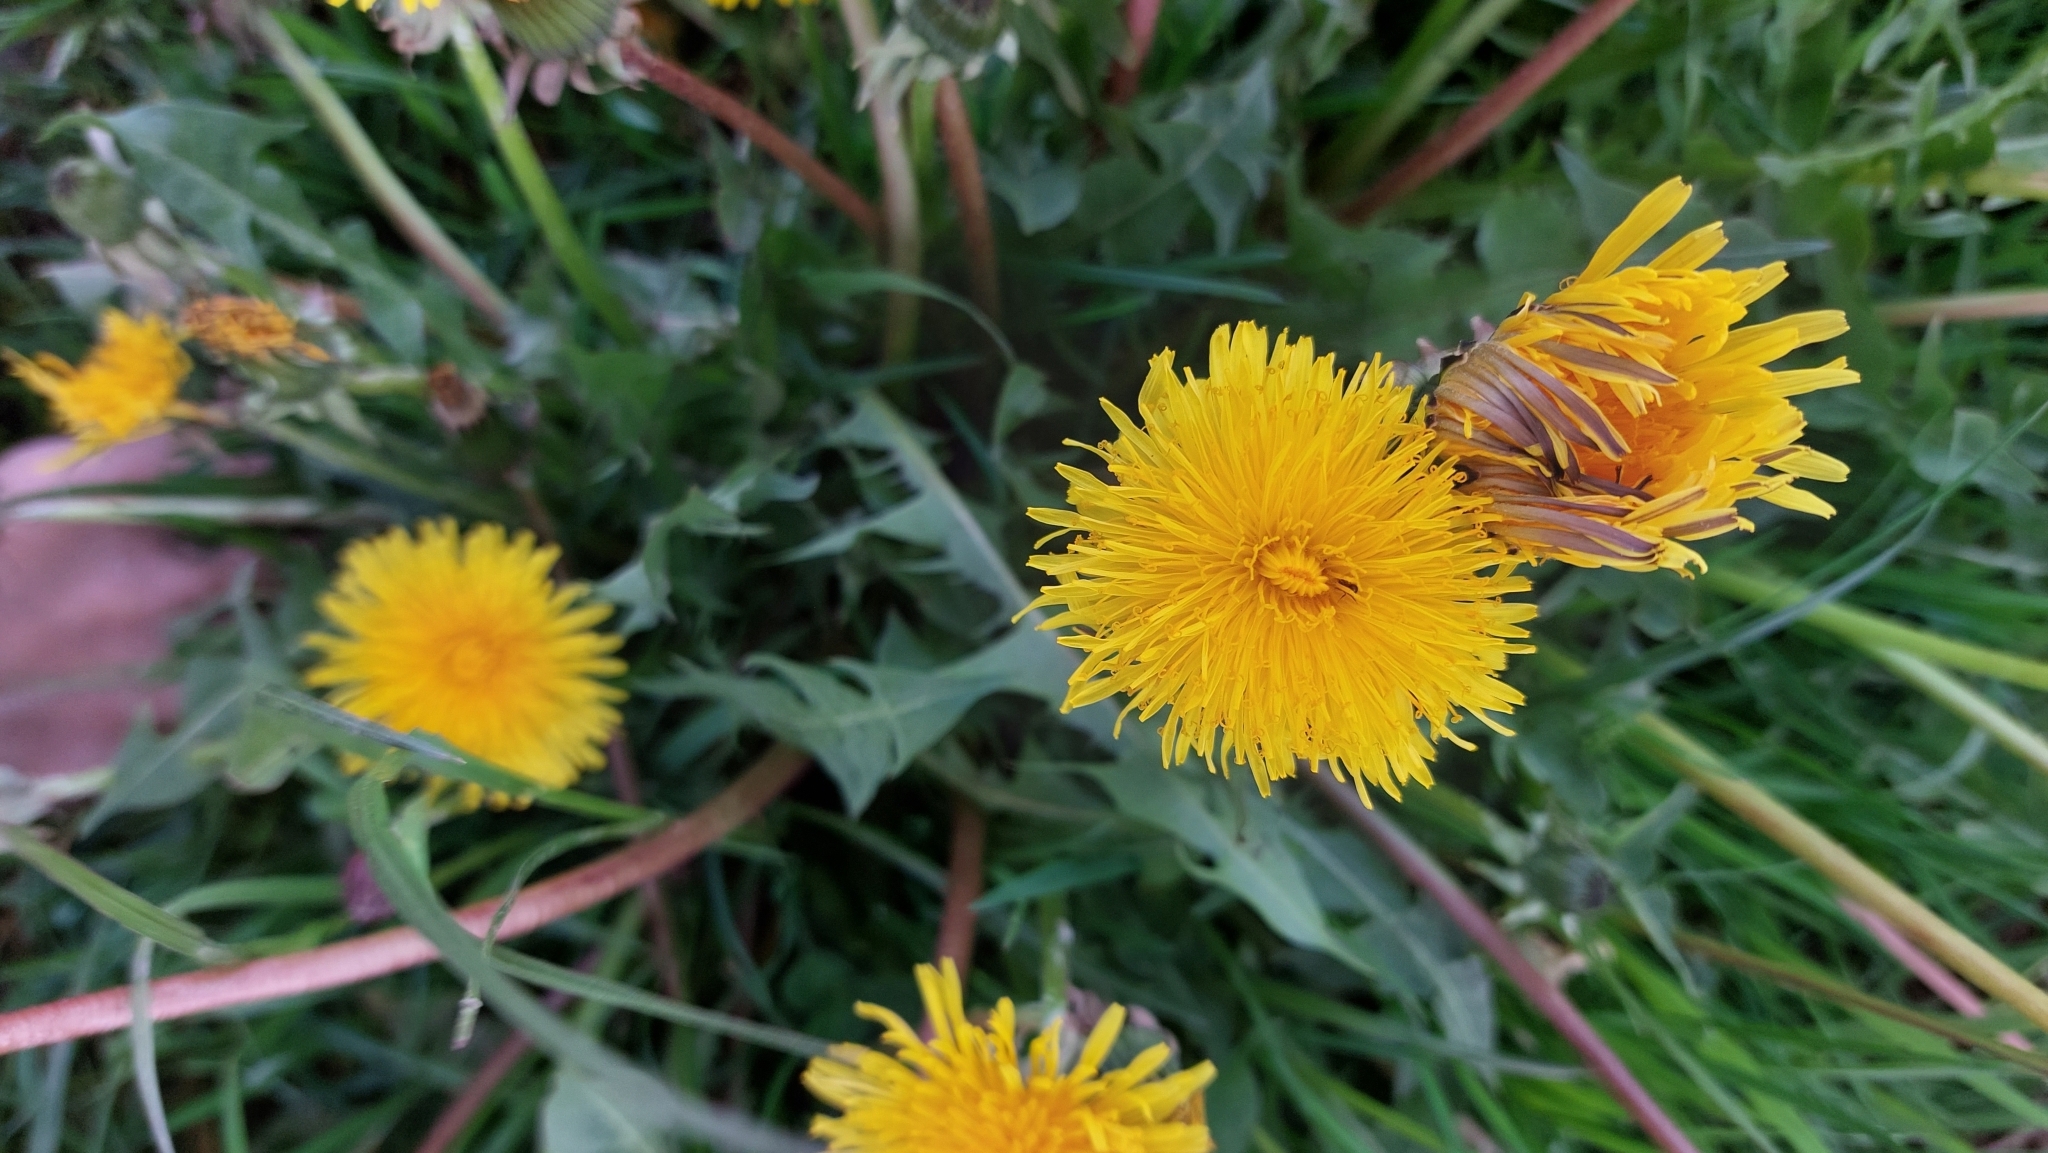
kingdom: Plantae
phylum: Tracheophyta
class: Magnoliopsida
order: Asterales
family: Asteraceae
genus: Taraxacum
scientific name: Taraxacum
